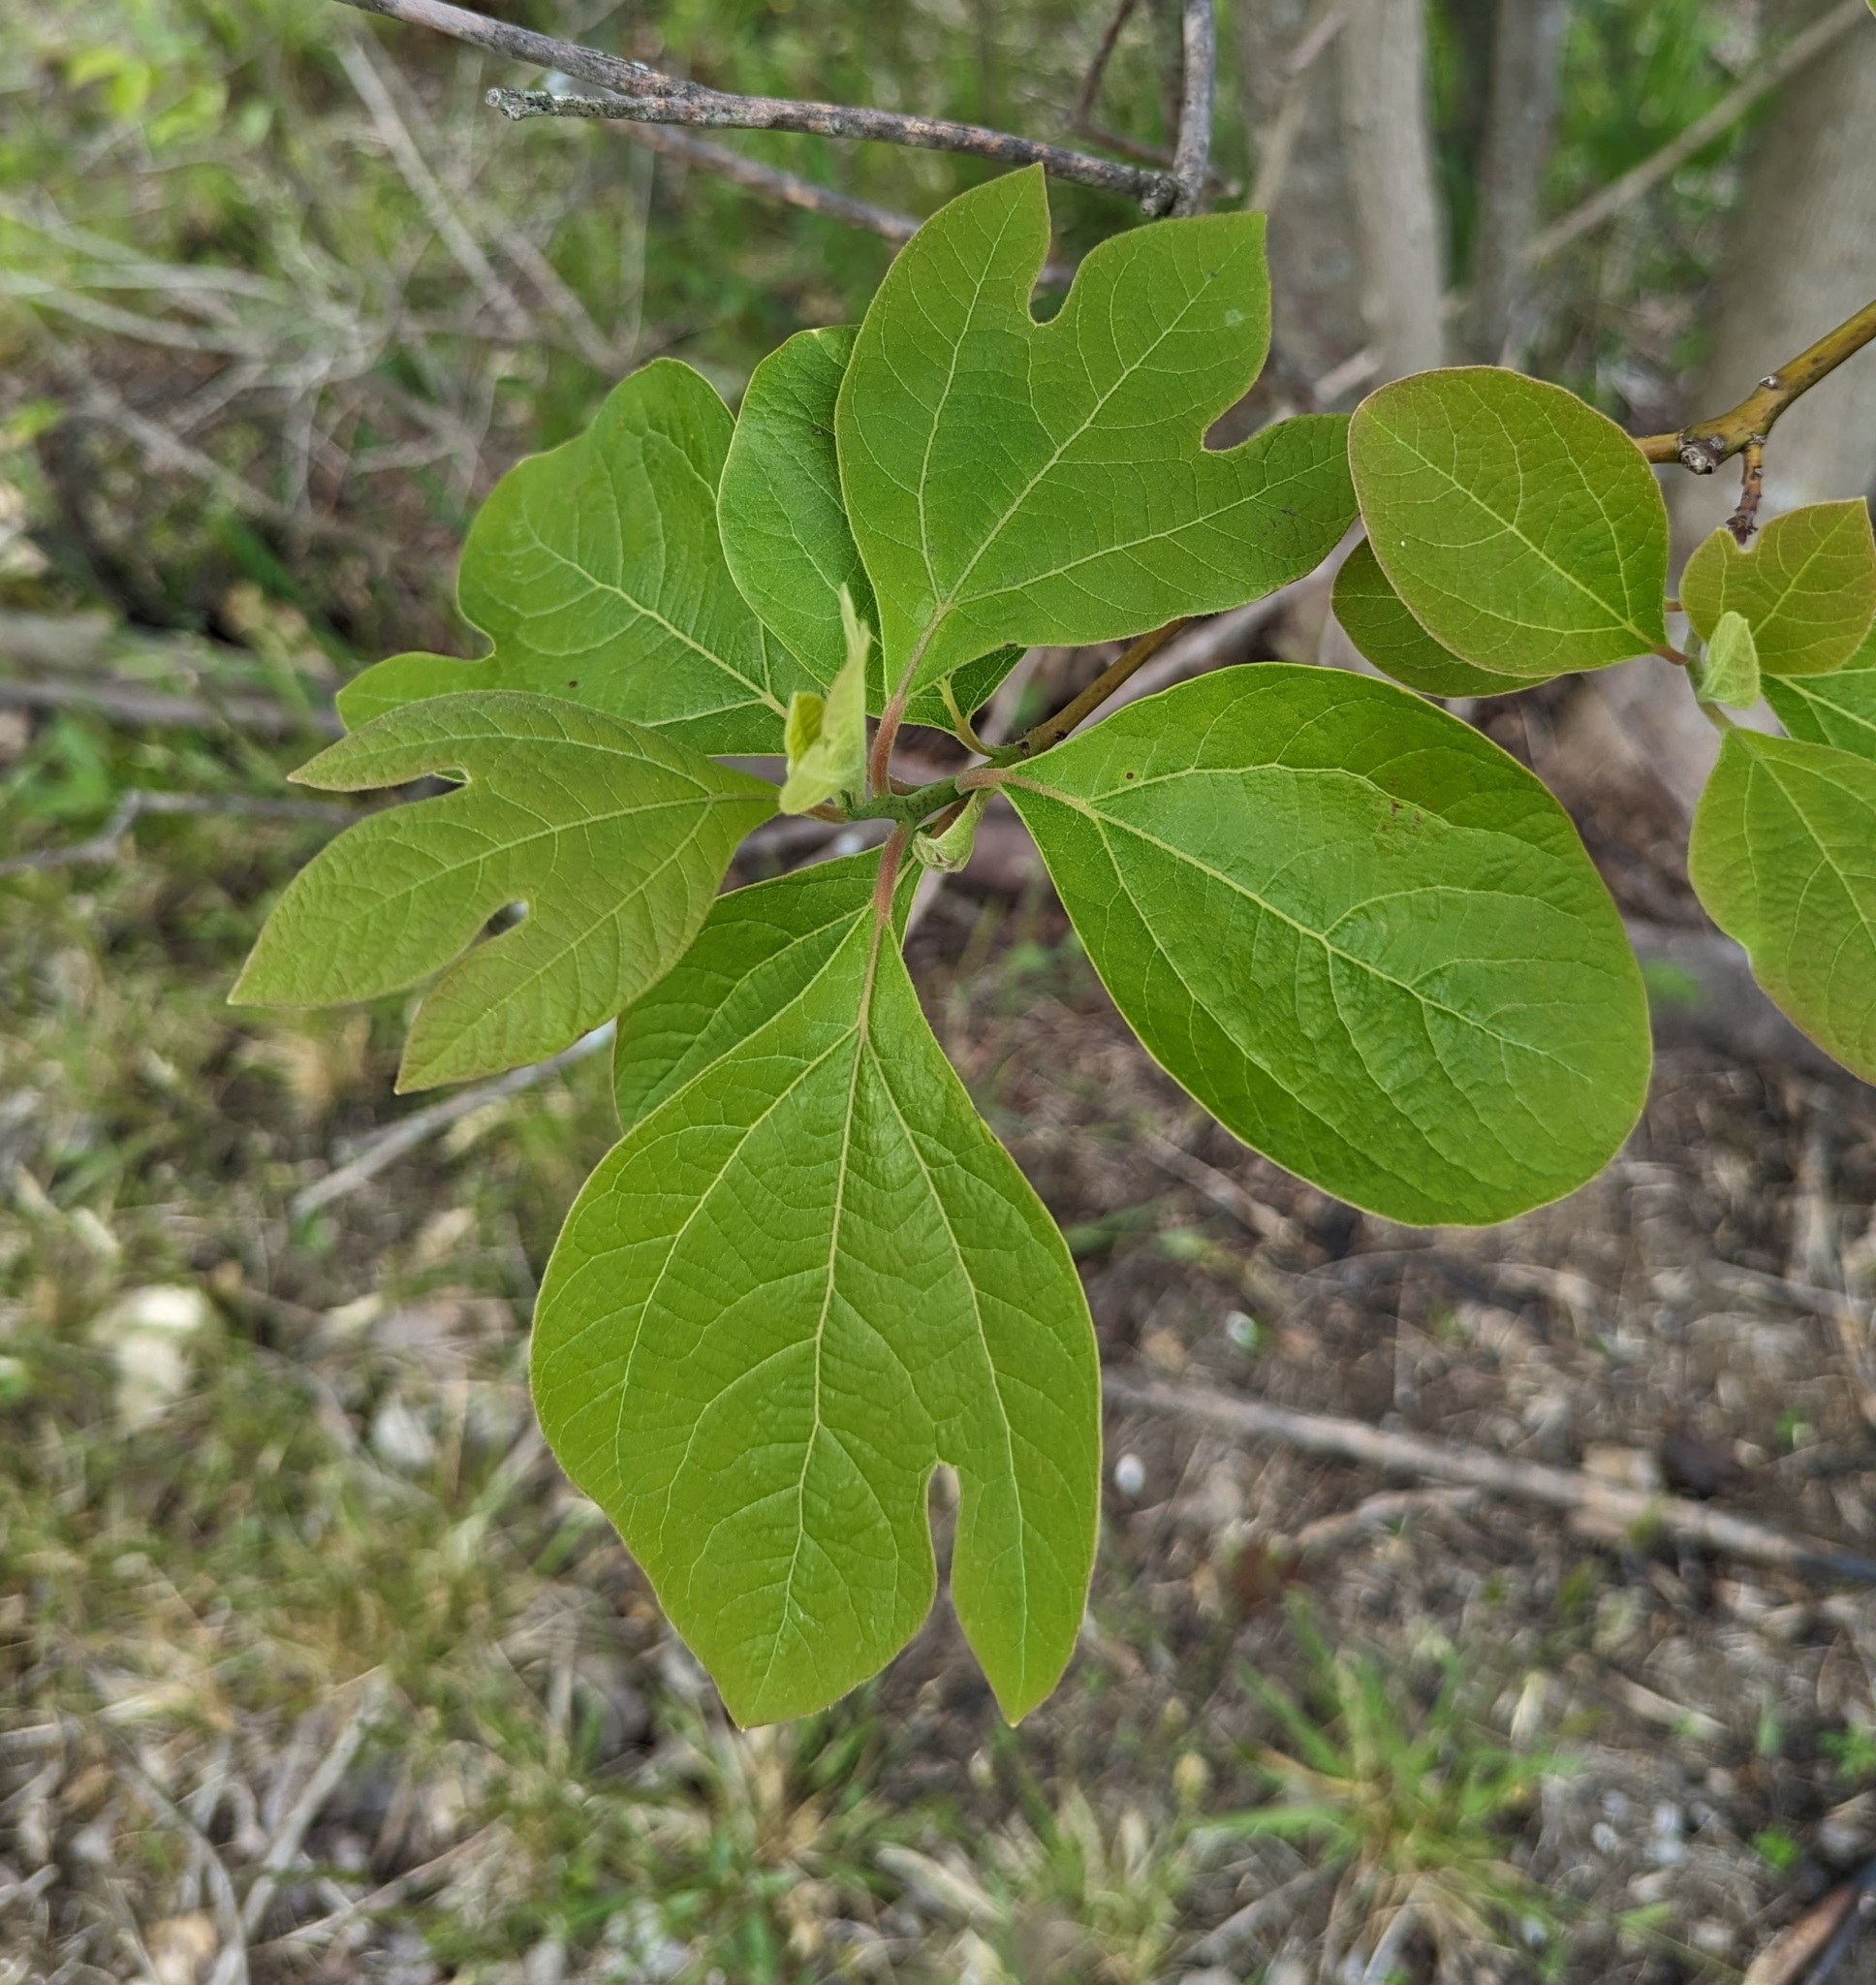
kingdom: Plantae
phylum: Tracheophyta
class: Magnoliopsida
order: Laurales
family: Lauraceae
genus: Sassafras
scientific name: Sassafras albidum
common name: Sassafras
